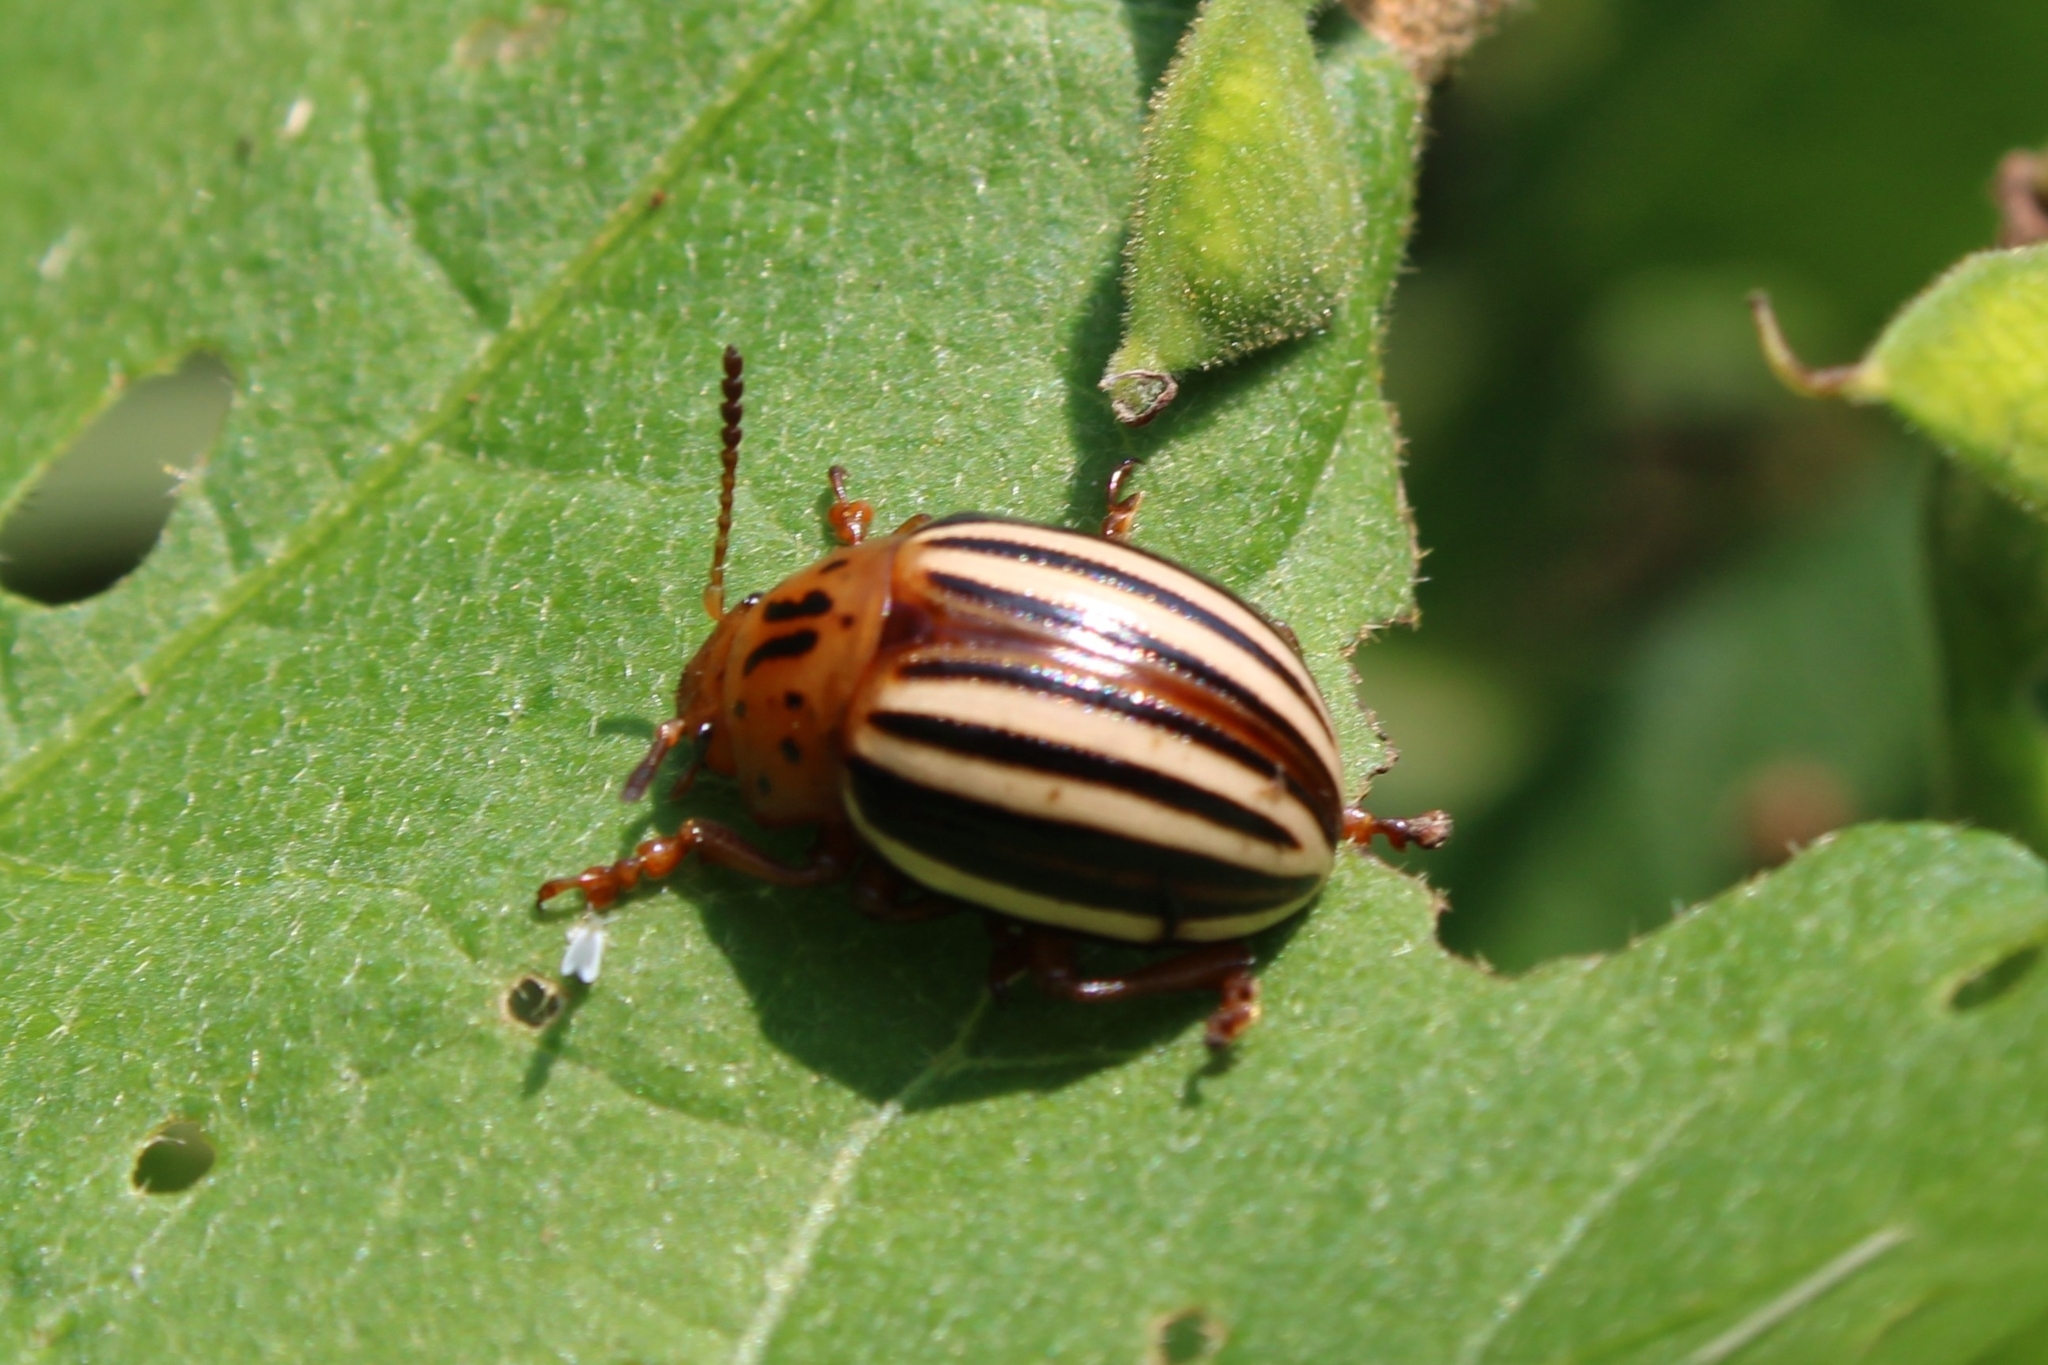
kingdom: Animalia
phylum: Arthropoda
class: Insecta
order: Coleoptera
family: Chrysomelidae
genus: Leptinotarsa
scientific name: Leptinotarsa juncta
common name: False potato beetle
